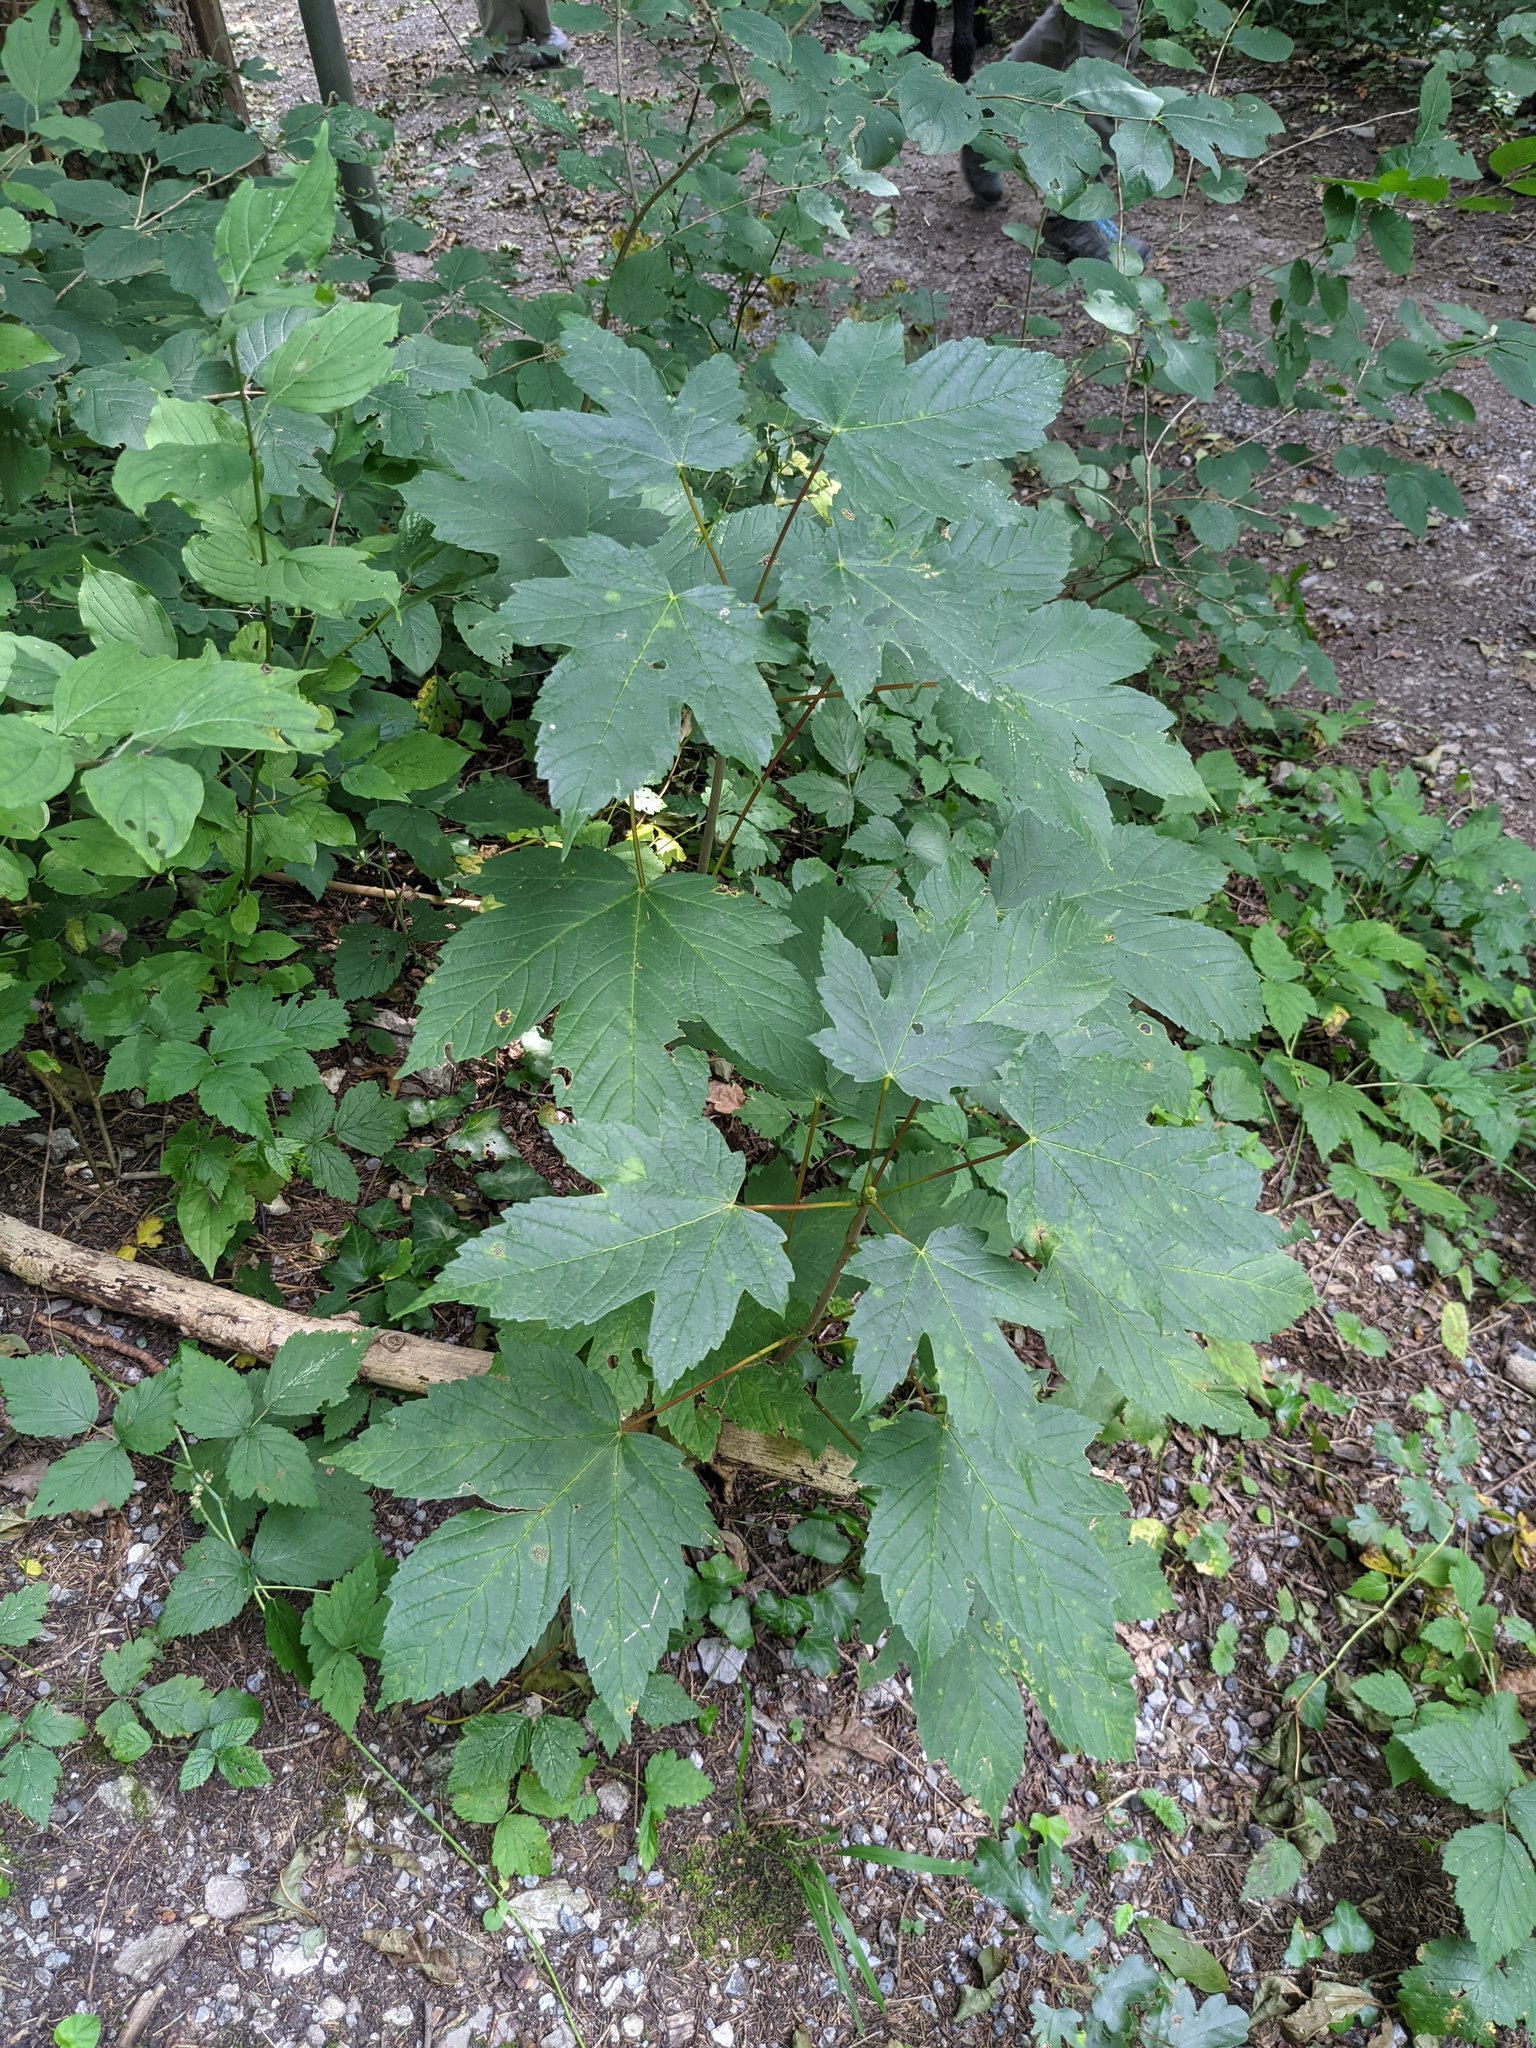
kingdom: Plantae
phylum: Tracheophyta
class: Magnoliopsida
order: Sapindales
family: Sapindaceae
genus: Acer
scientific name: Acer pseudoplatanus
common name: Sycamore
